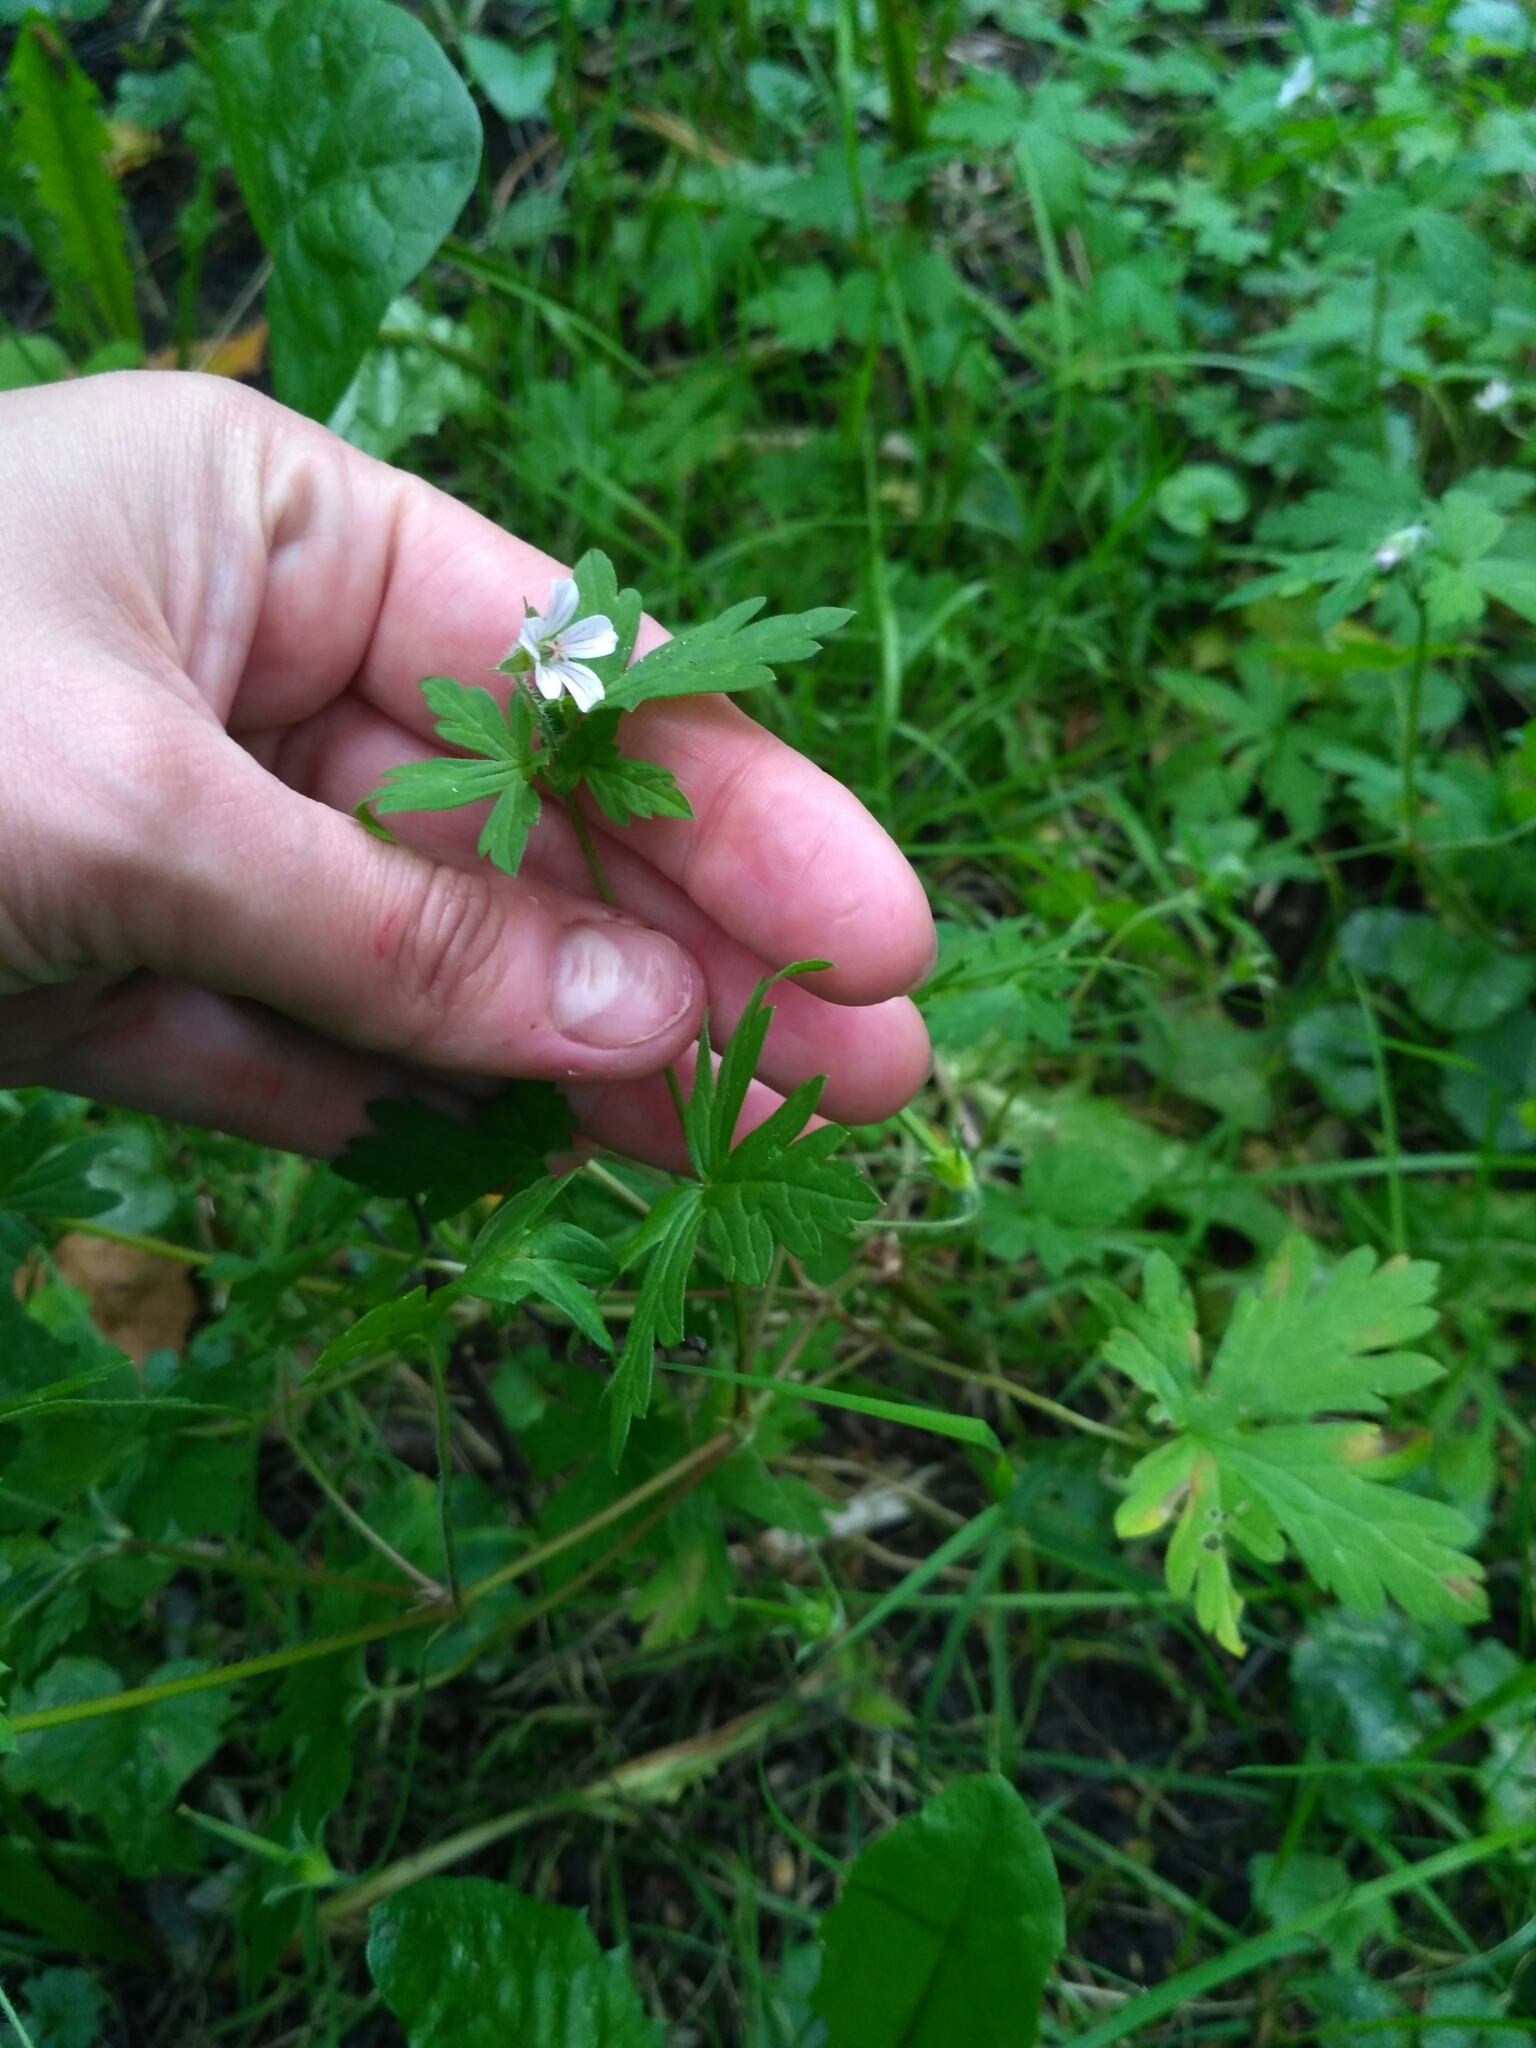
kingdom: Plantae
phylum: Tracheophyta
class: Magnoliopsida
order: Geraniales
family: Geraniaceae
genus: Geranium
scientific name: Geranium sibiricum
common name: Siberian crane's-bill
